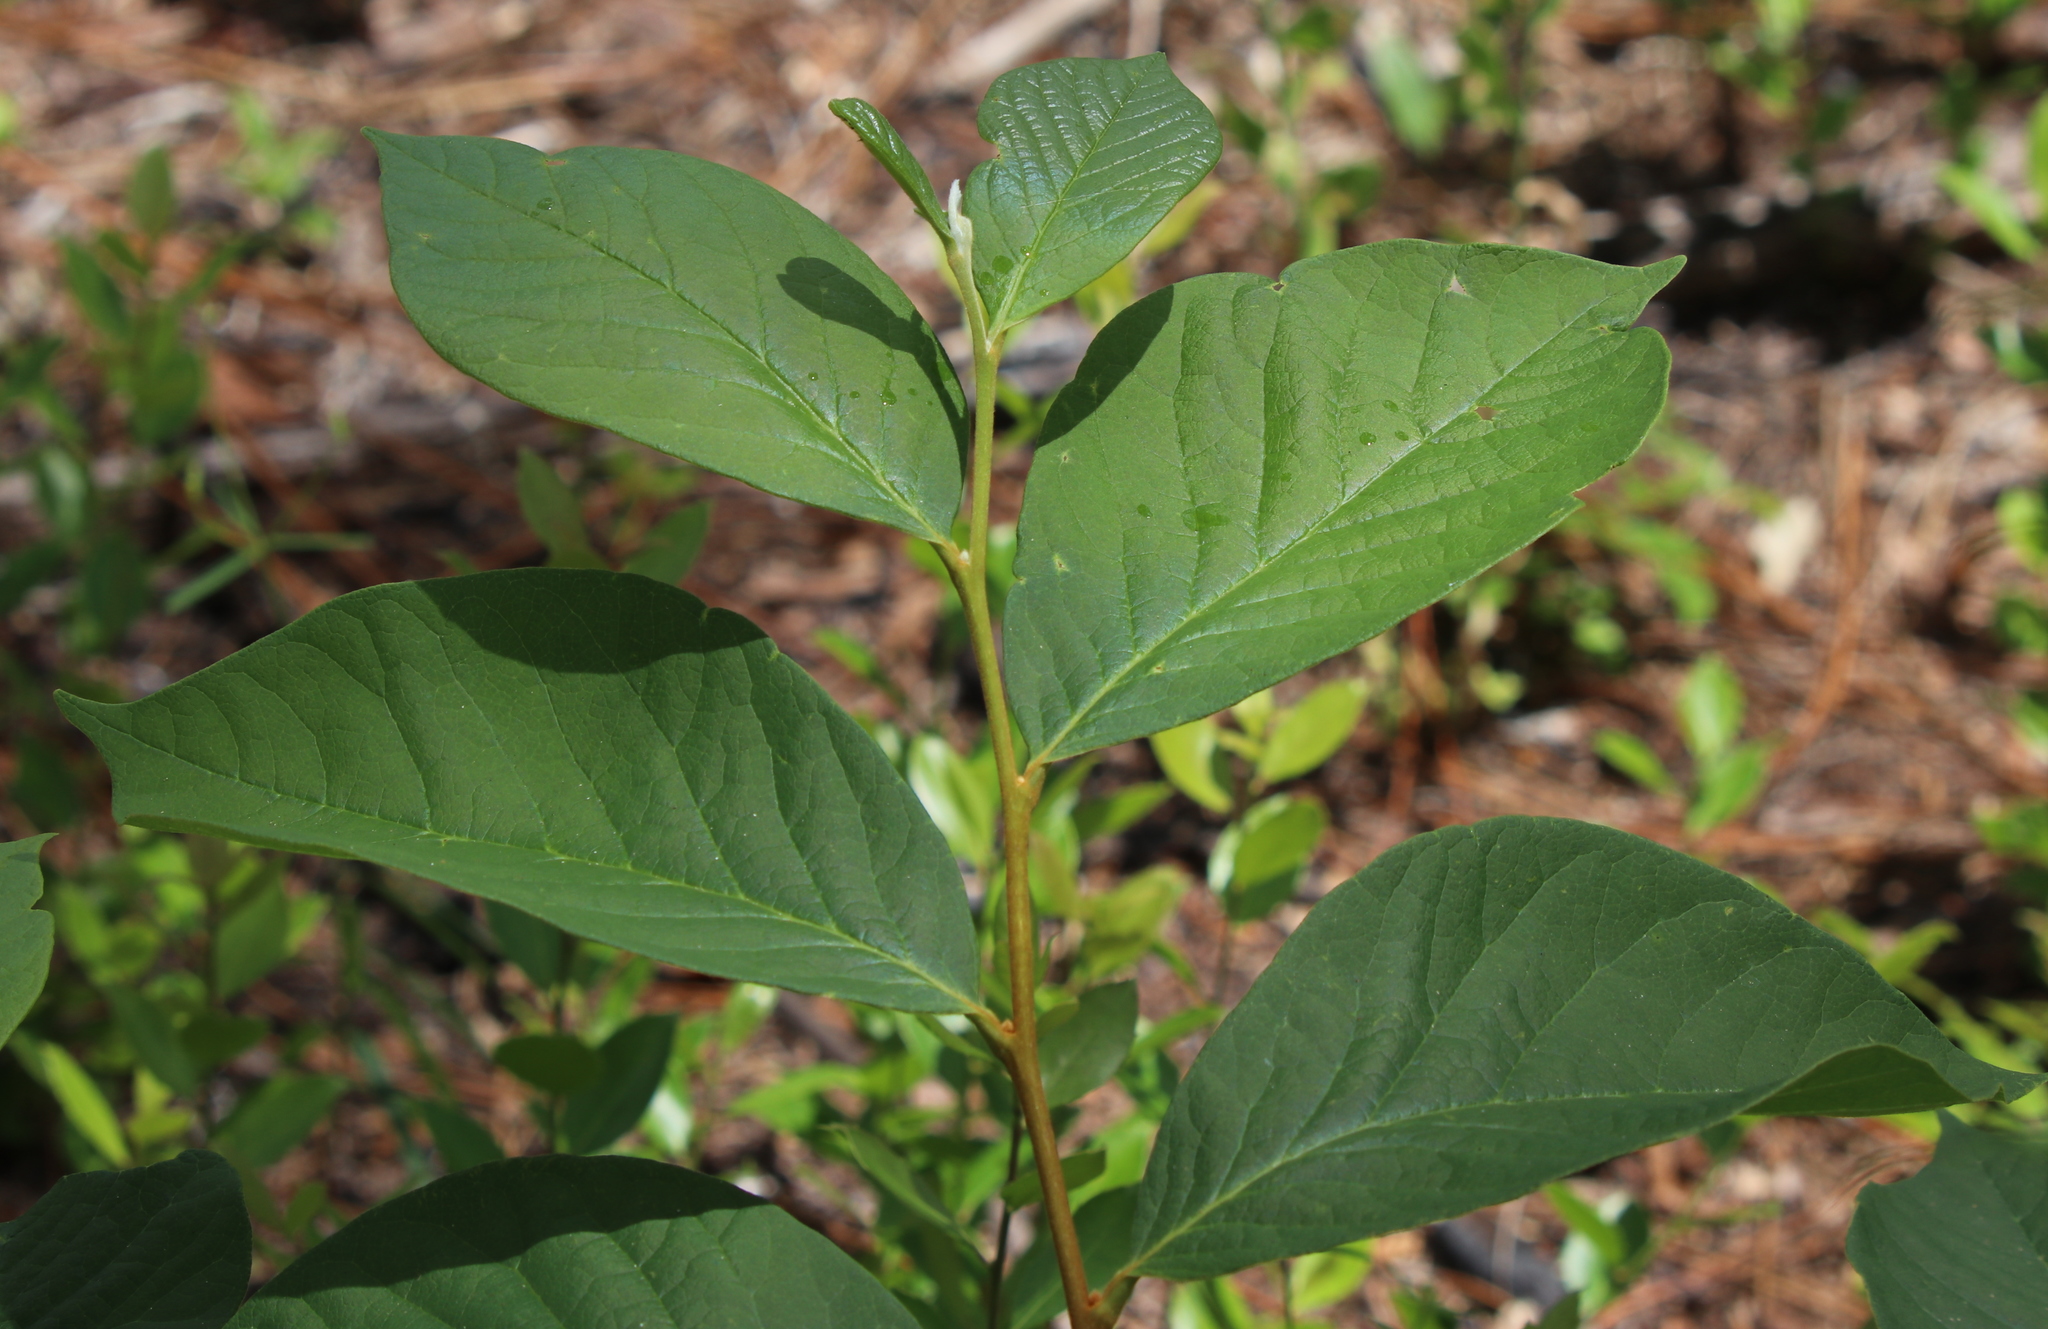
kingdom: Plantae
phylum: Tracheophyta
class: Magnoliopsida
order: Magnoliales
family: Annonaceae
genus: Asimina
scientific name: Asimina parviflora
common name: Dwarf pawpaw
